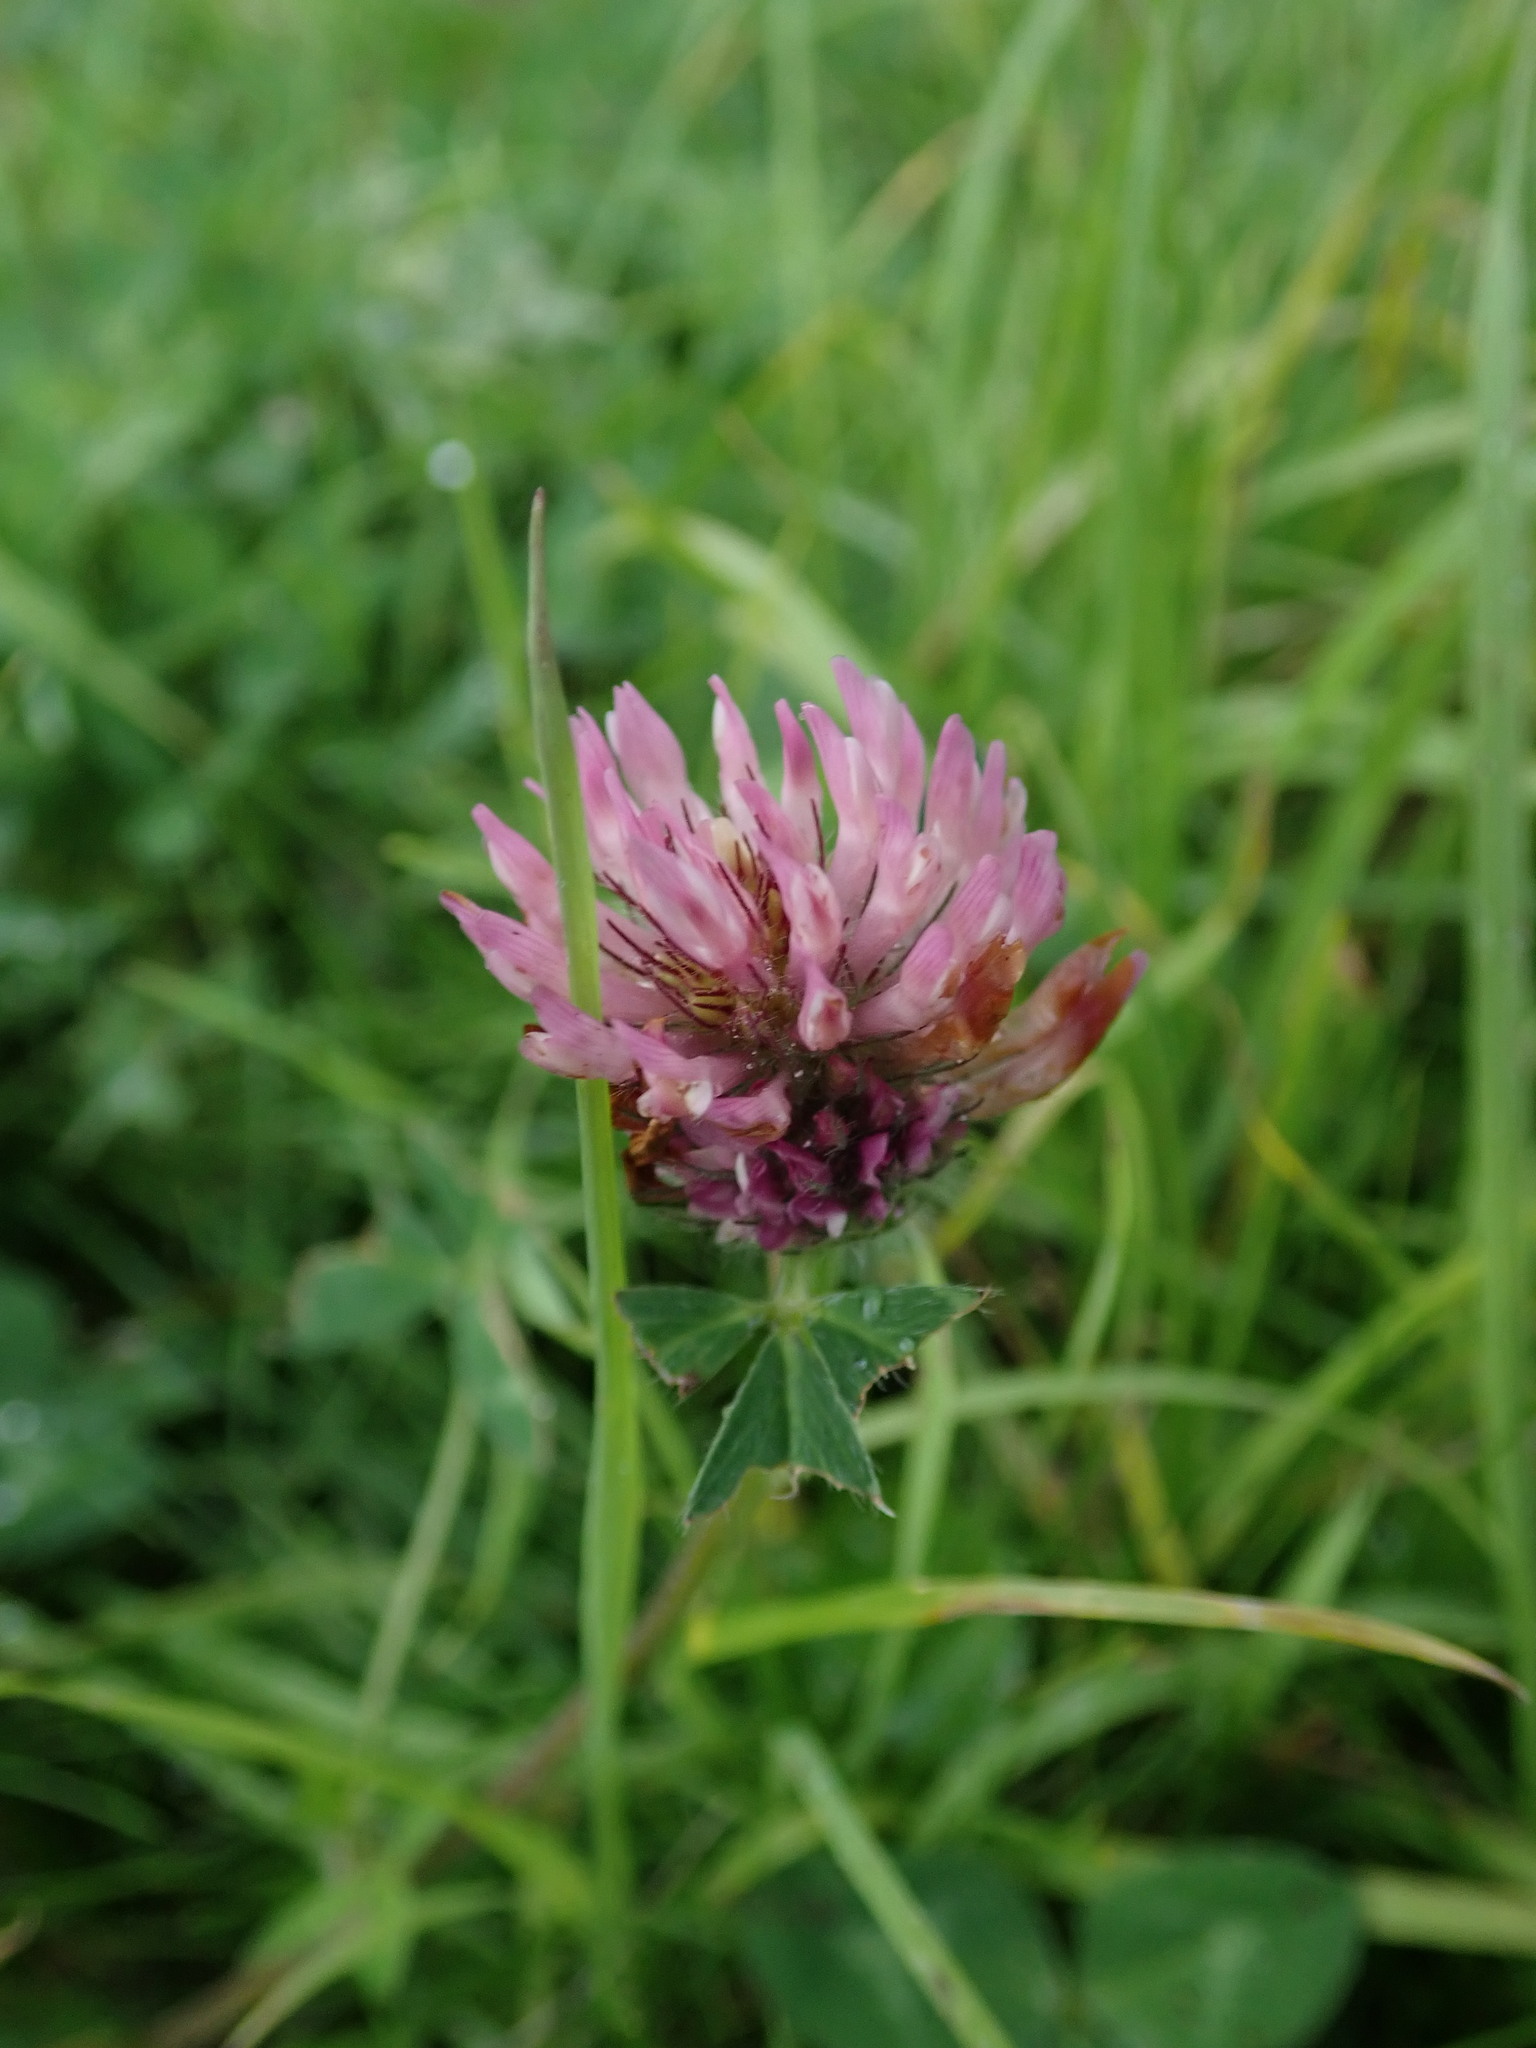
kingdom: Plantae
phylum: Tracheophyta
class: Magnoliopsida
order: Fabales
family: Fabaceae
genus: Trifolium
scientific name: Trifolium pratense
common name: Red clover
